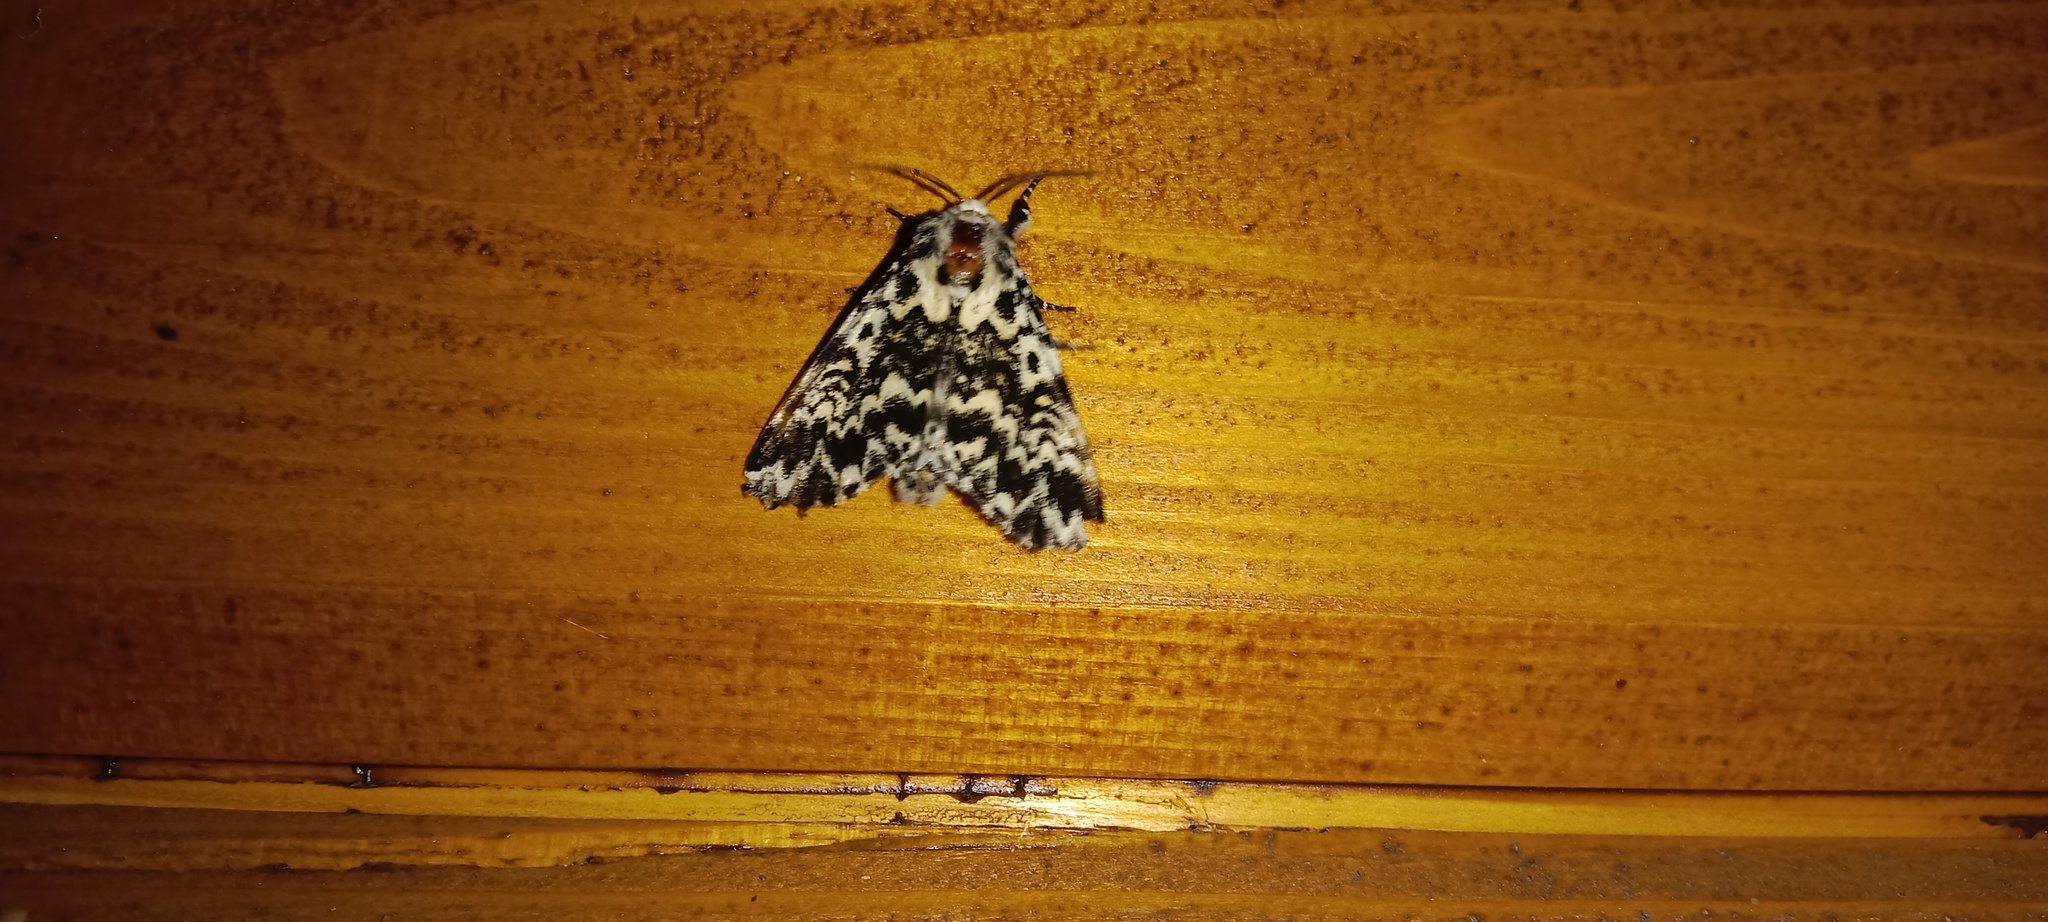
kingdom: Animalia
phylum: Arthropoda
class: Insecta
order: Lepidoptera
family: Noctuidae
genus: Panthea
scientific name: Panthea coenobita
